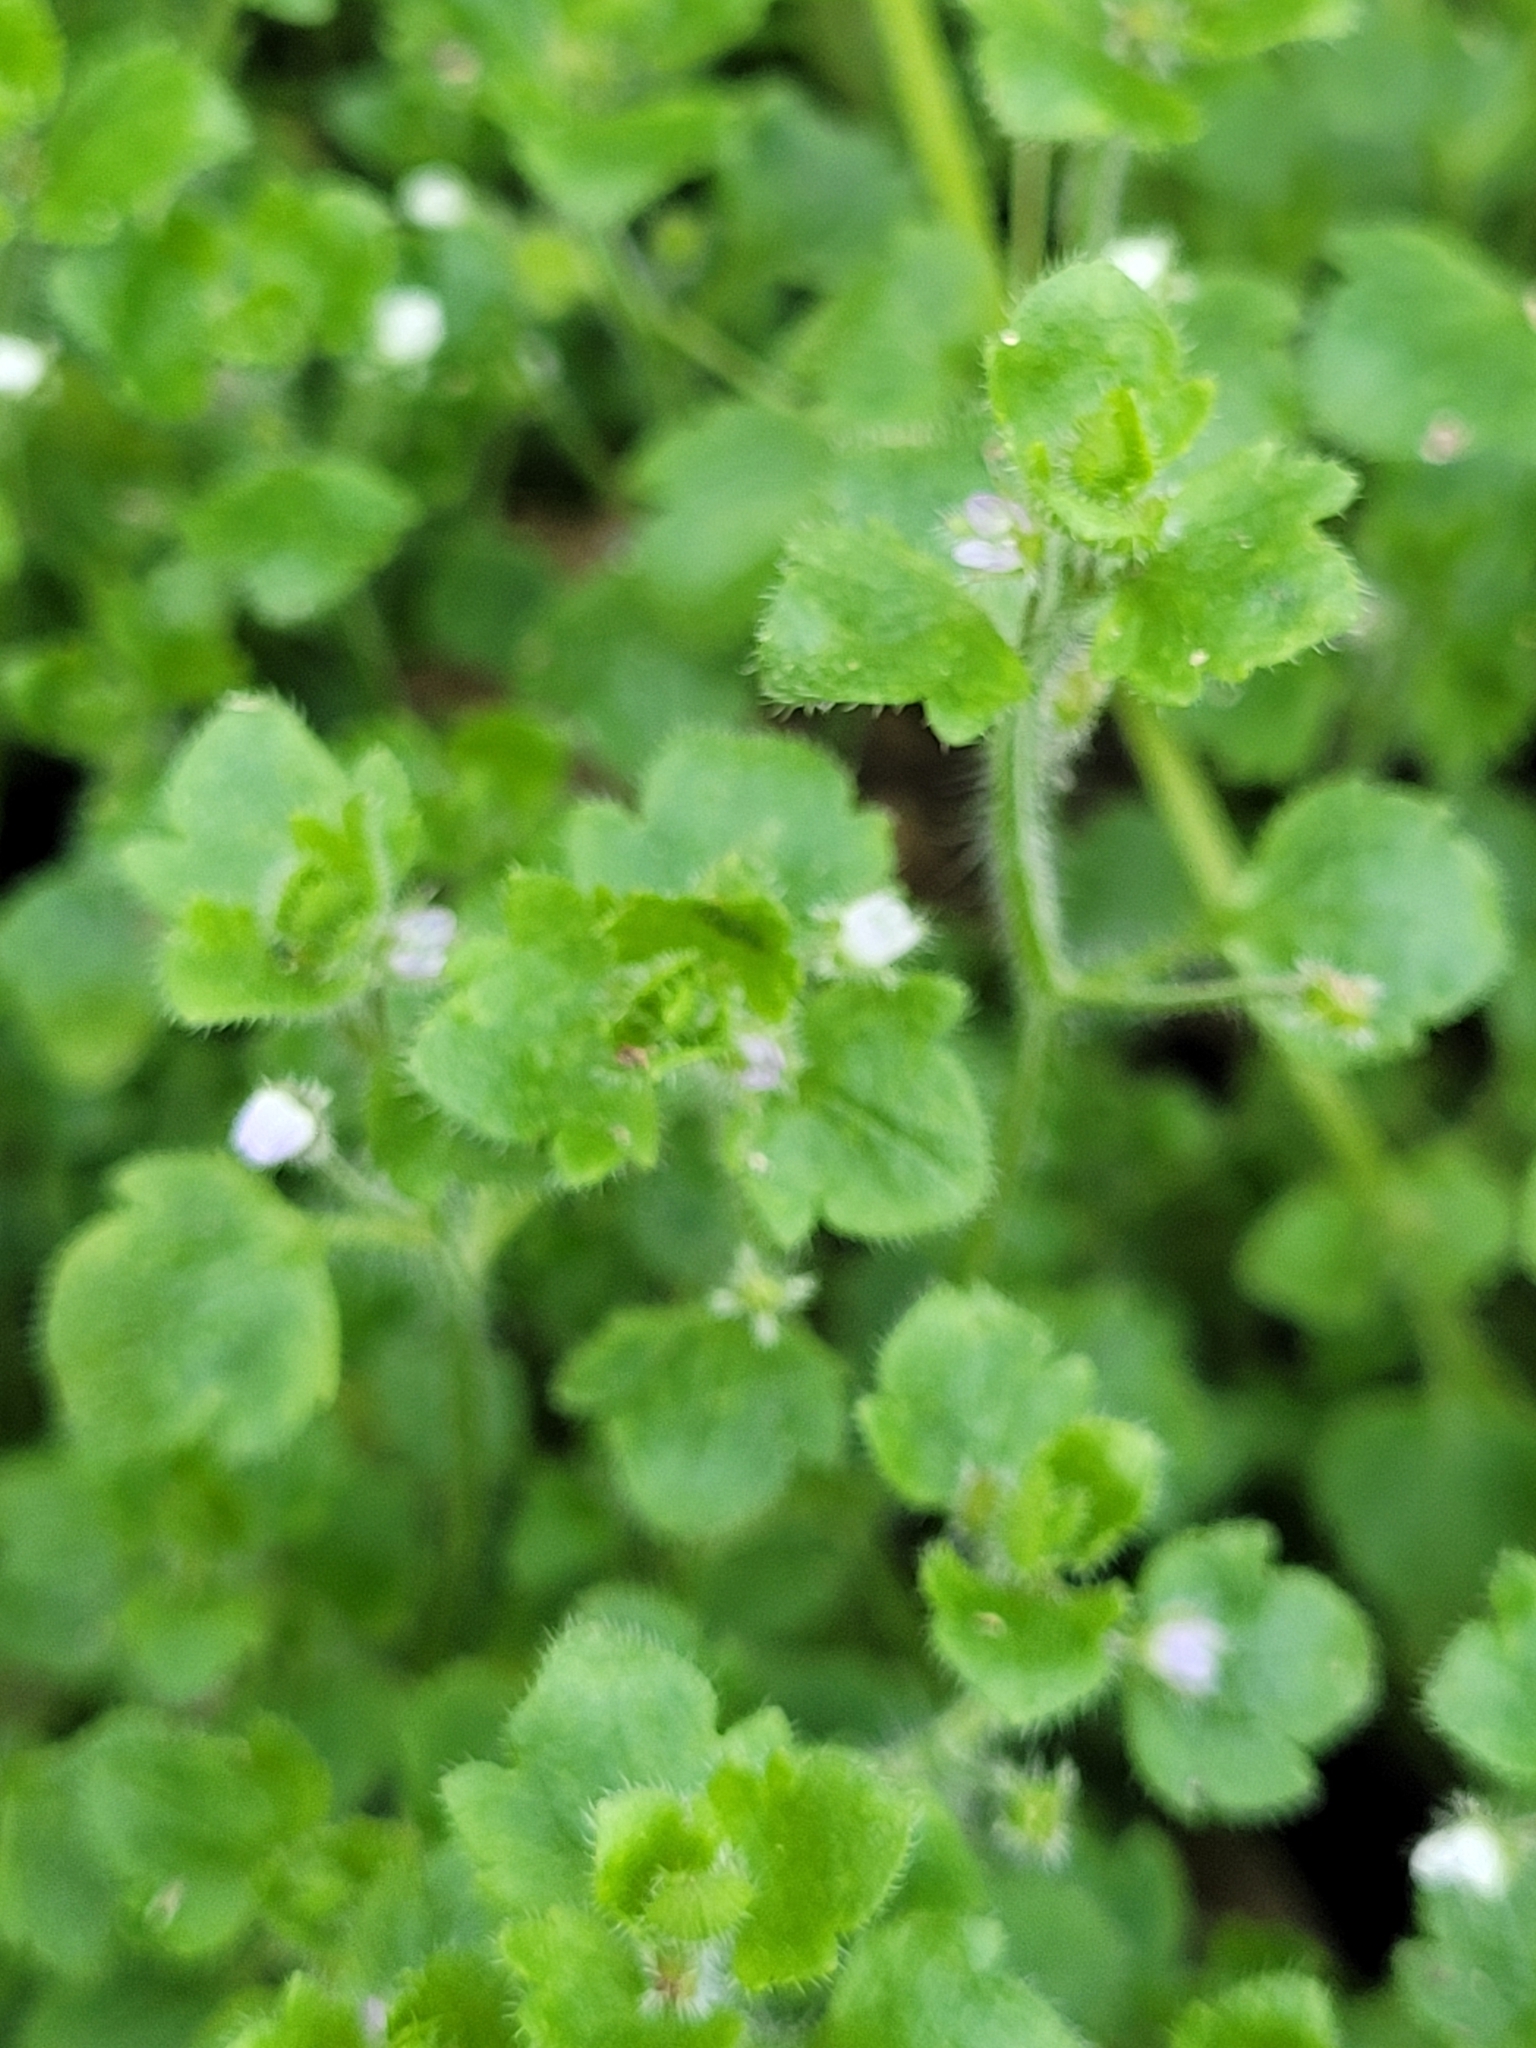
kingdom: Plantae
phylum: Tracheophyta
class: Magnoliopsida
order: Lamiales
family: Plantaginaceae
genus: Veronica
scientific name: Veronica sublobata
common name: False ivy-leaved speedwell
